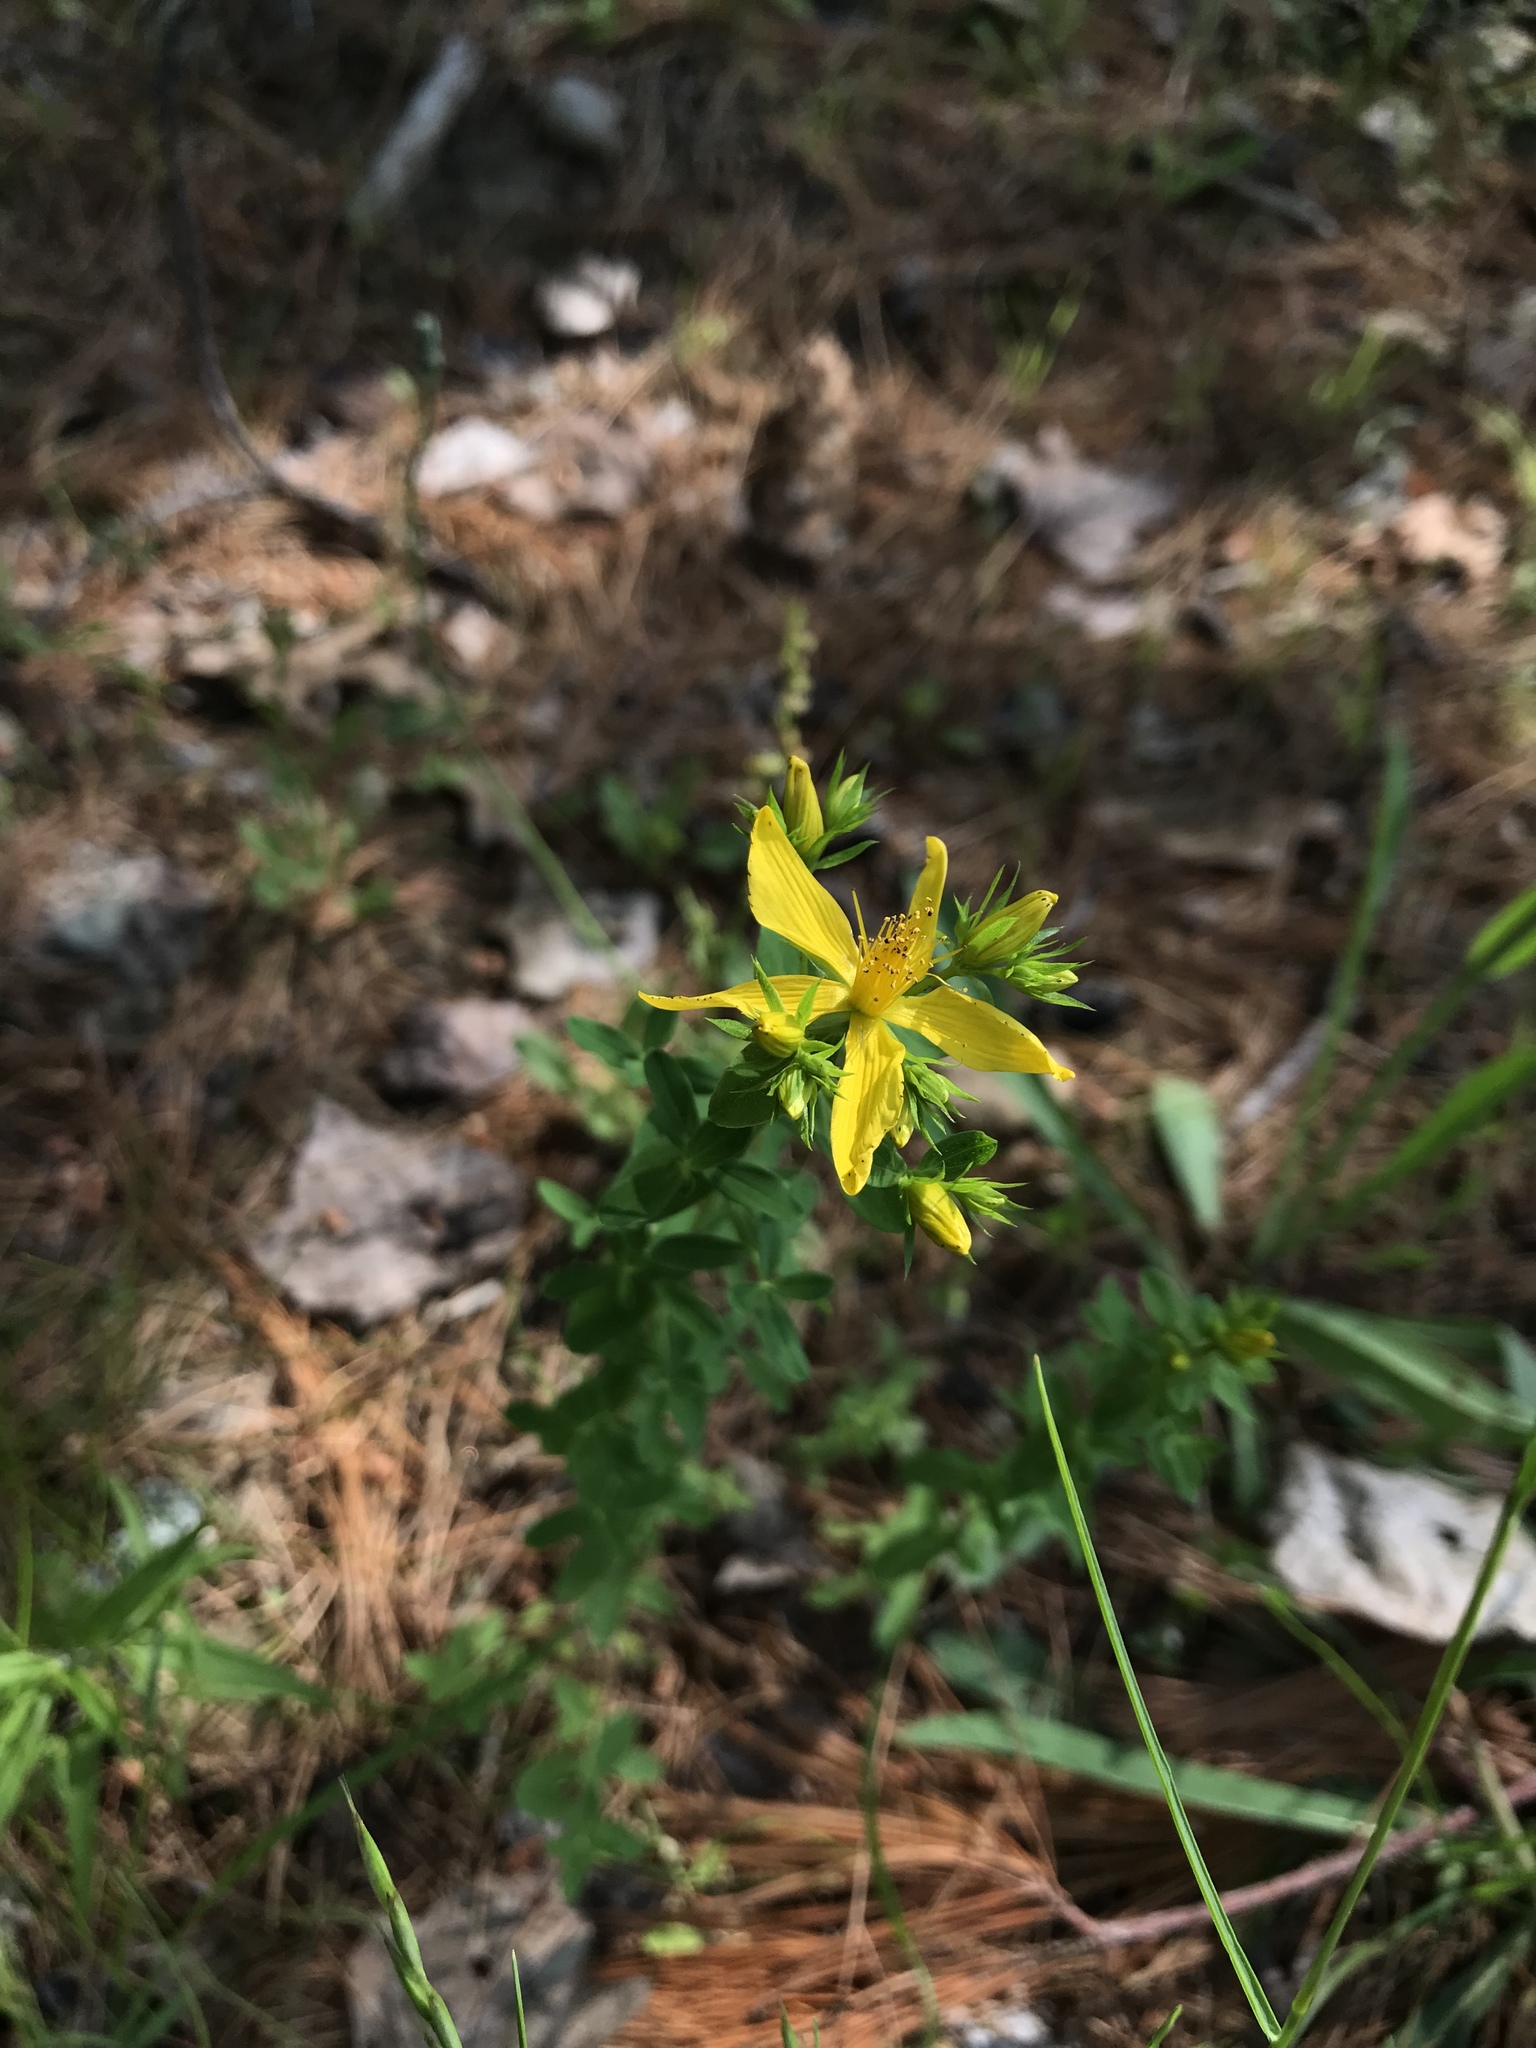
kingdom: Plantae
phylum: Tracheophyta
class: Magnoliopsida
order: Malpighiales
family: Hypericaceae
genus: Hypericum
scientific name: Hypericum perforatum
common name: Common st. johnswort
